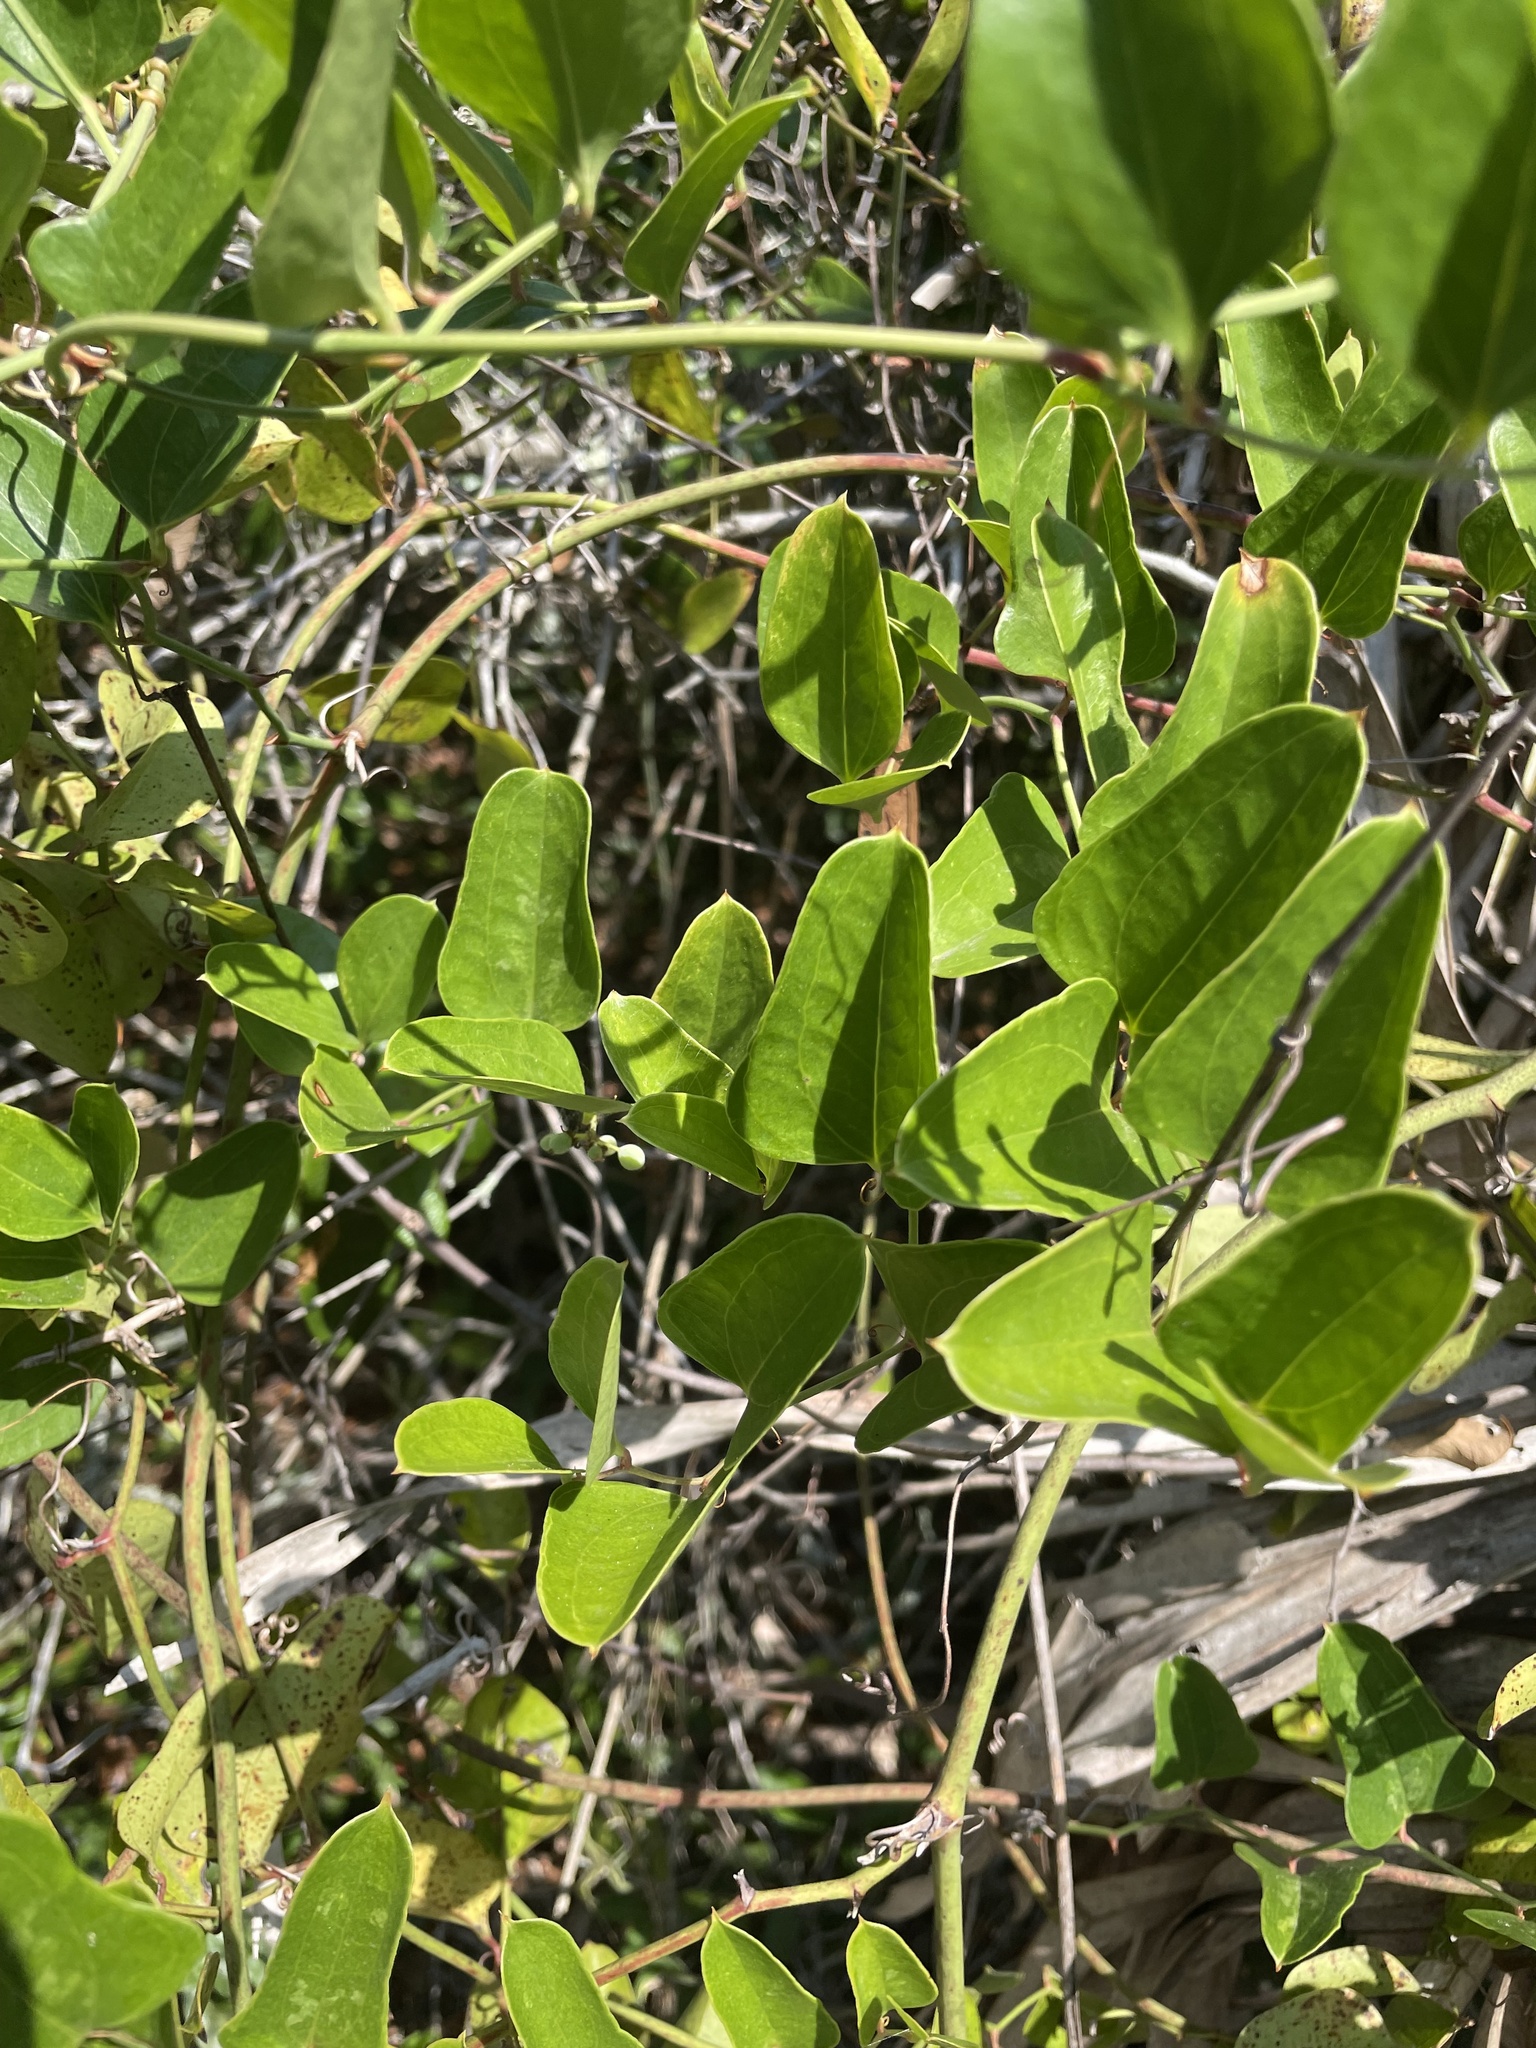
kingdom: Plantae
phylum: Tracheophyta
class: Liliopsida
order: Liliales
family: Smilacaceae
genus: Smilax
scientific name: Smilax auriculata
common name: Wild bamboo
